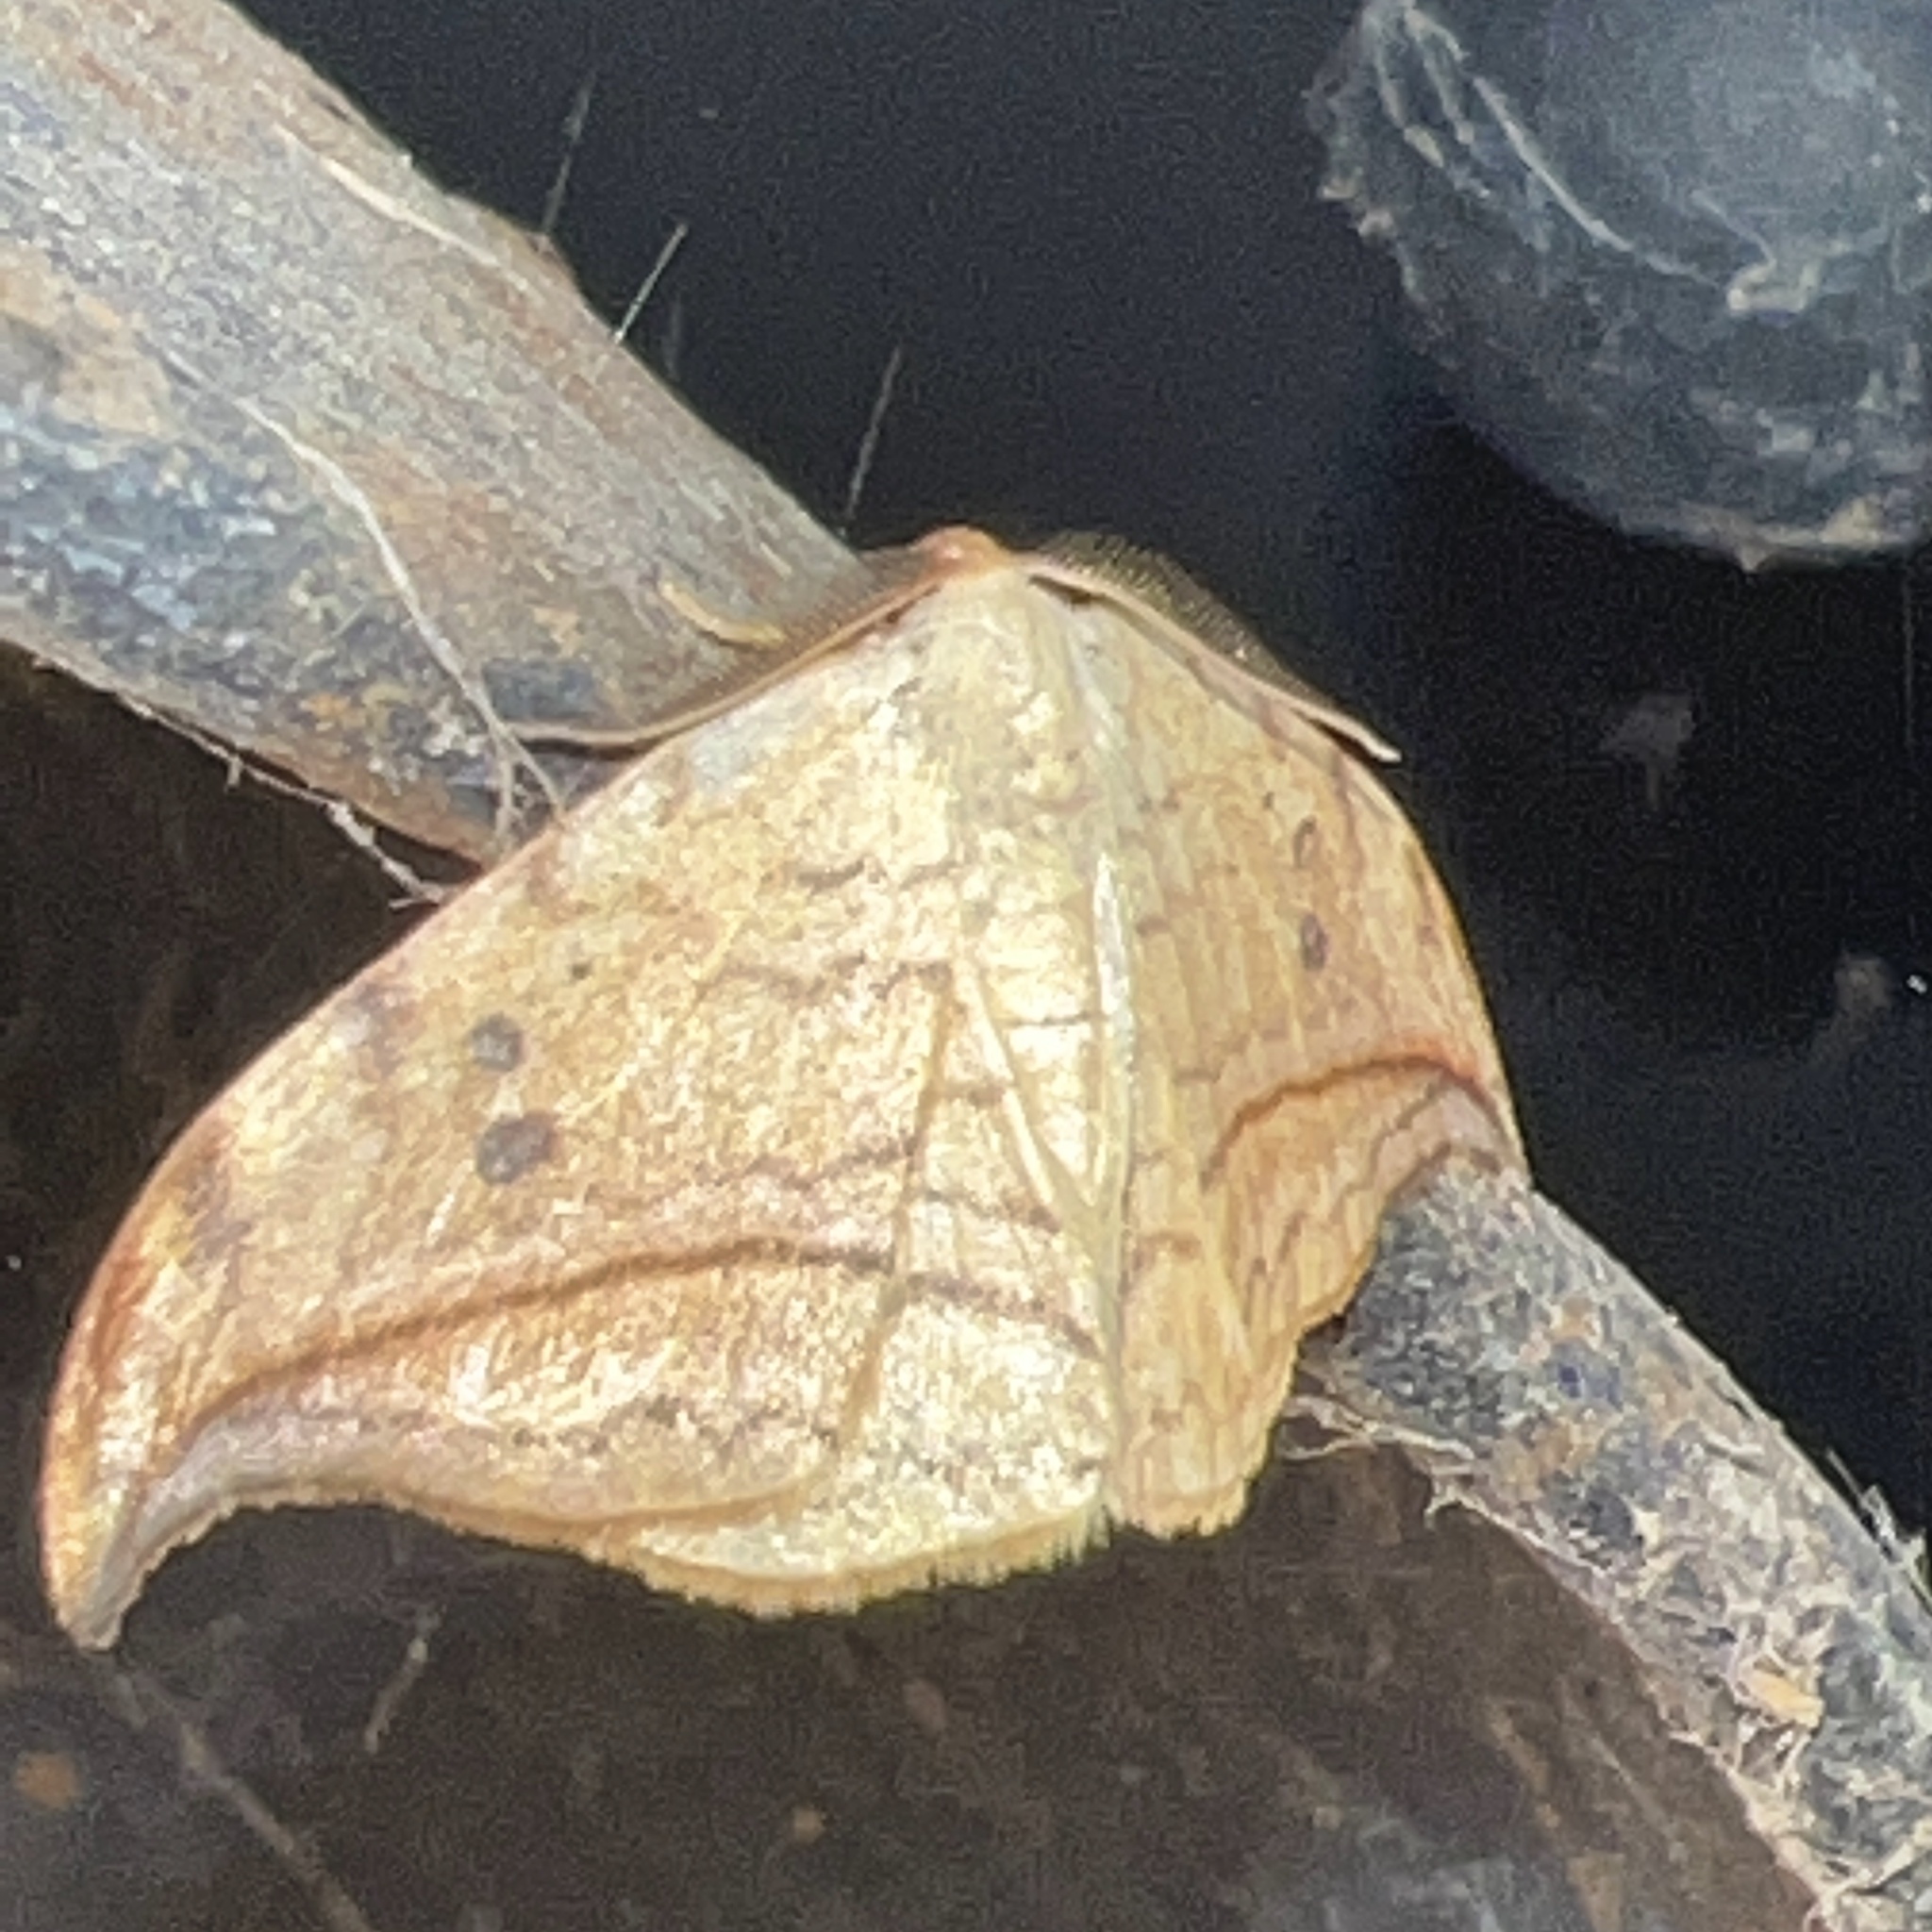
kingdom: Animalia
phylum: Arthropoda
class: Insecta
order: Lepidoptera
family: Drepanidae
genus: Drepana
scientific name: Drepana arcuata
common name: Arched hooktip moth
